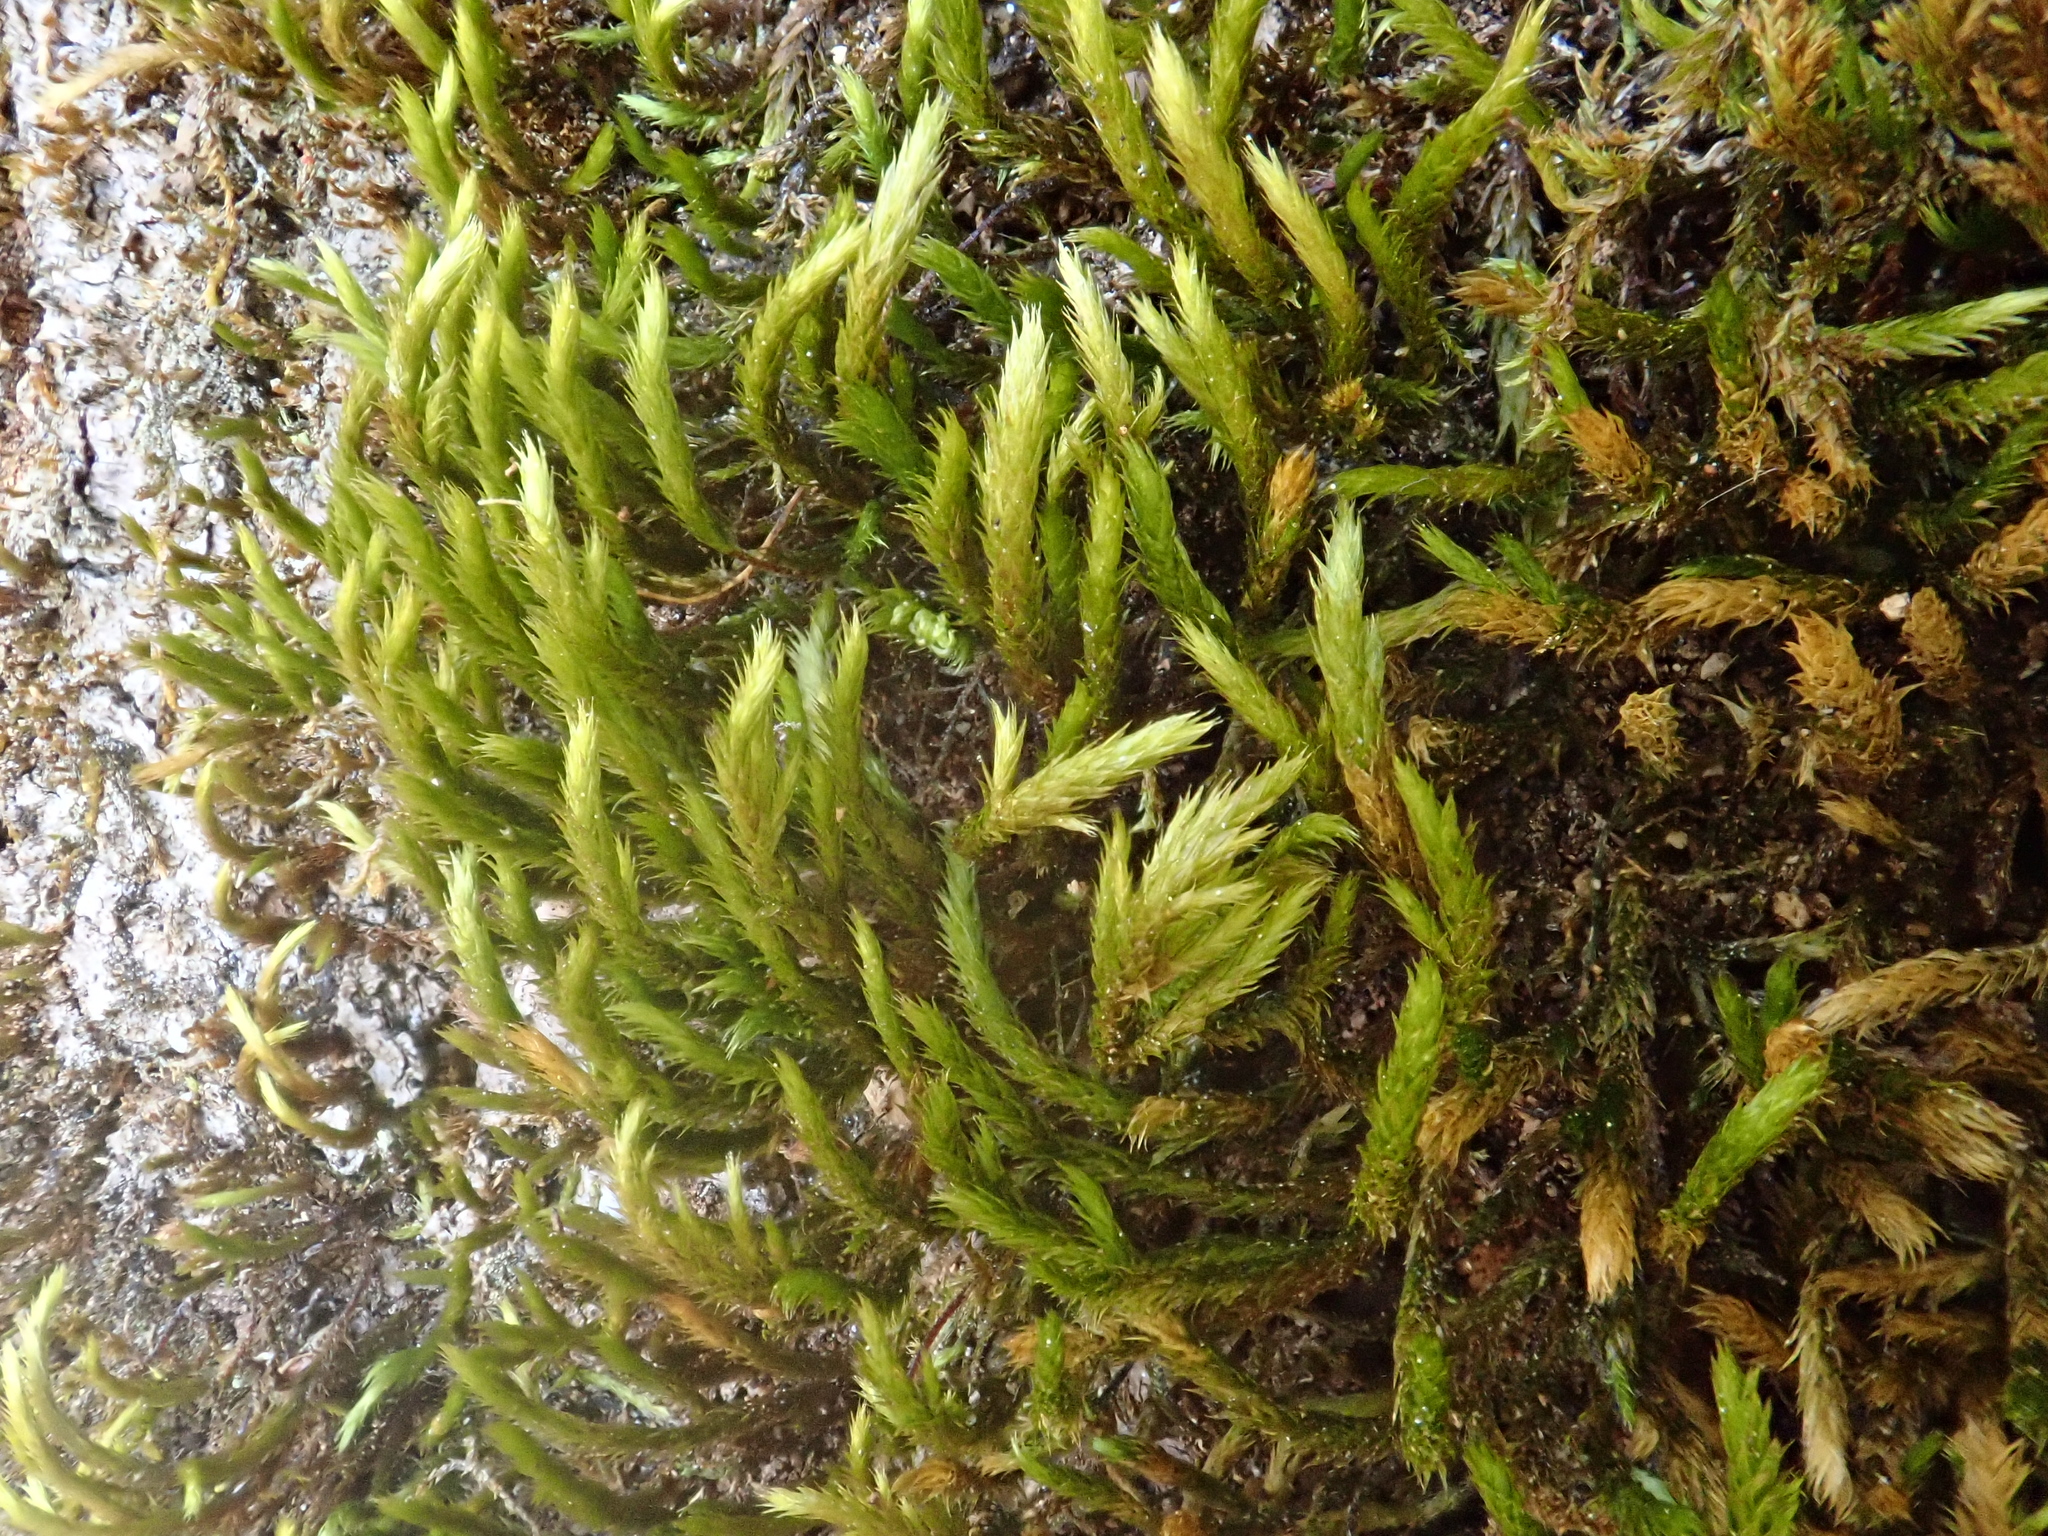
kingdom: Plantae
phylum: Bryophyta
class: Bryopsida
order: Hypnales
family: Leucodontaceae
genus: Leucodon
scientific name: Leucodon sciuroides
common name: Squirrel-tail moss
